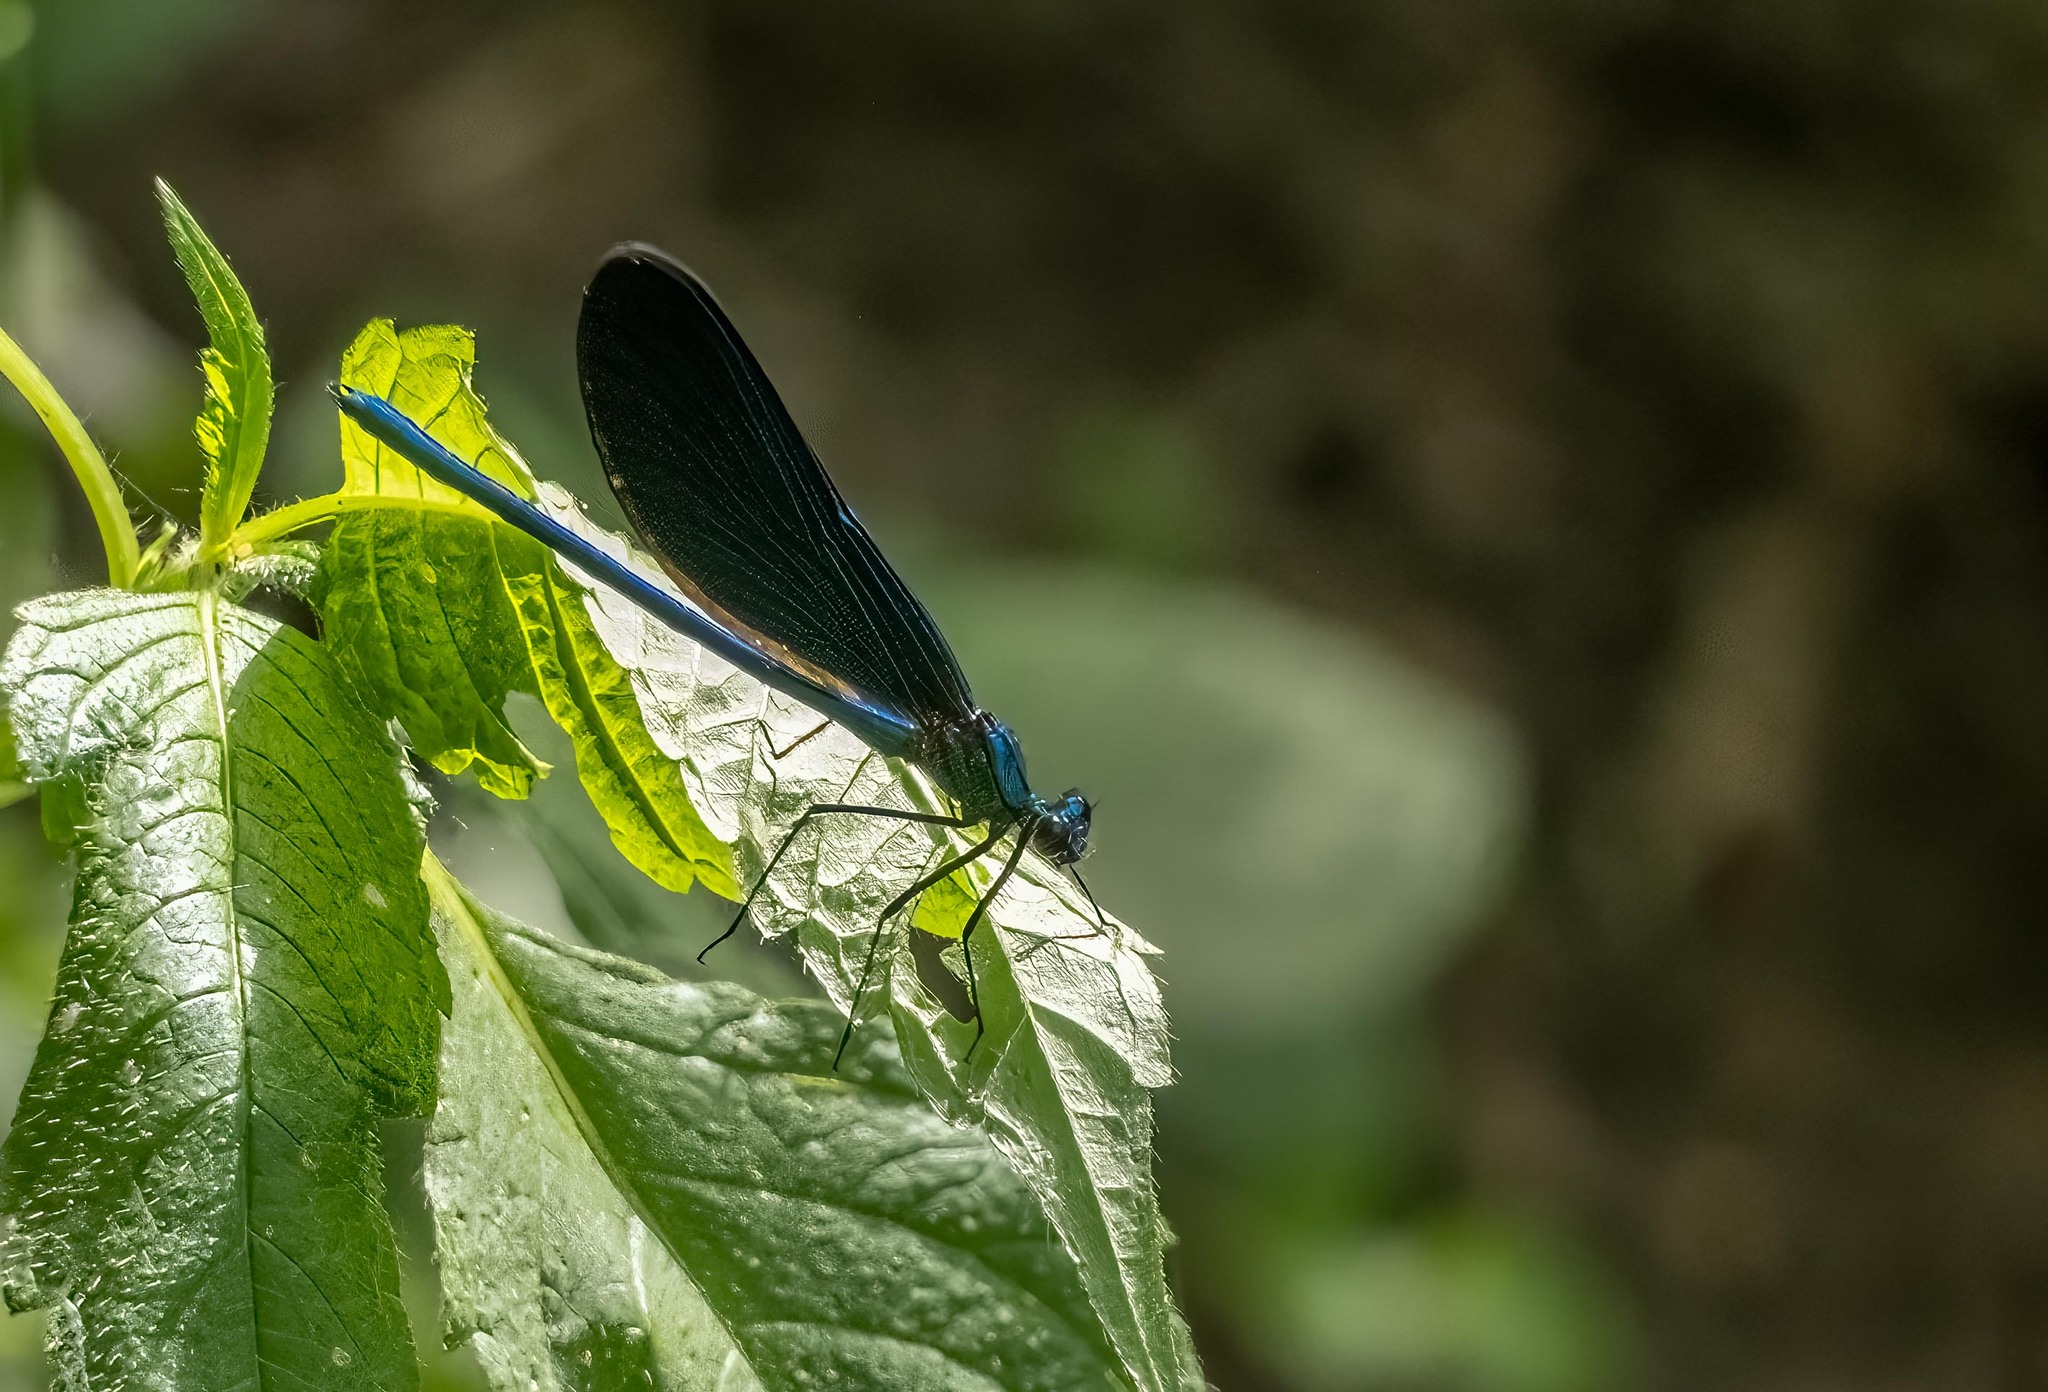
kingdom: Animalia
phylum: Arthropoda
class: Insecta
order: Odonata
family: Calopterygidae
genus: Calopteryx
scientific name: Calopteryx virgo
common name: Beautiful demoiselle
